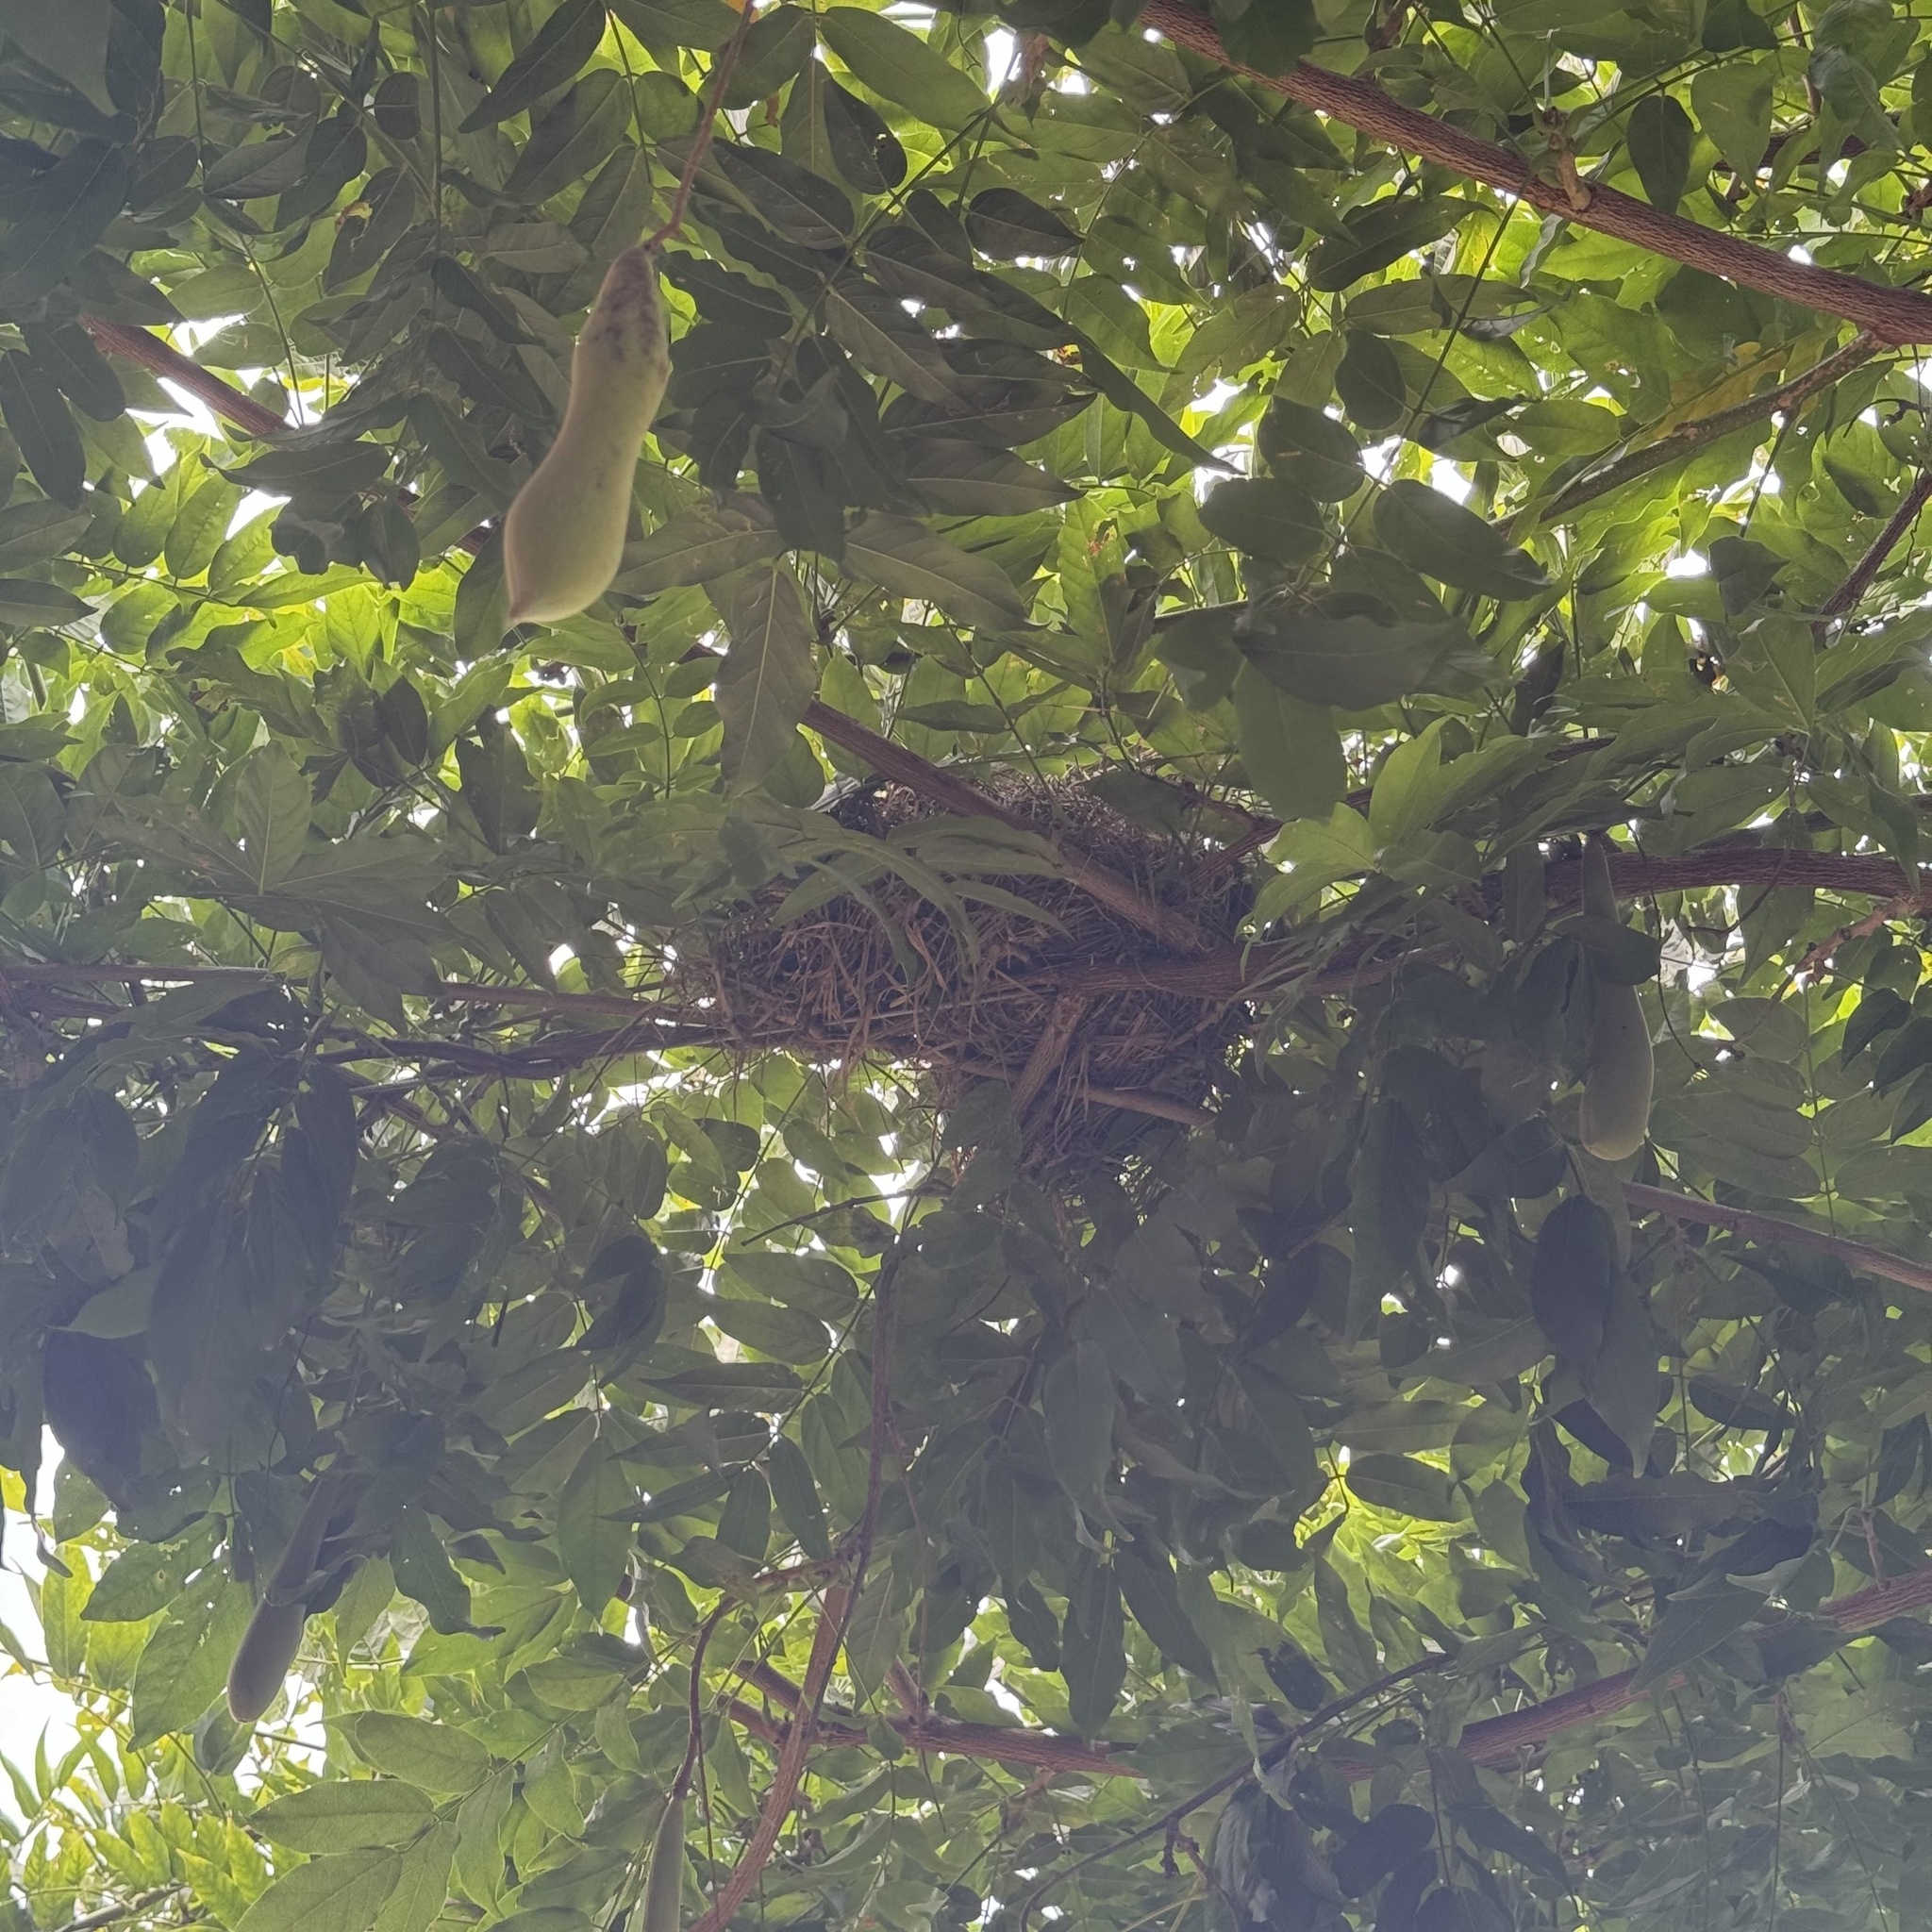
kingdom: Animalia
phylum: Chordata
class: Aves
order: Passeriformes
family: Estrildidae
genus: Neochmia
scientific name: Neochmia temporalis
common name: Red-browed finch
